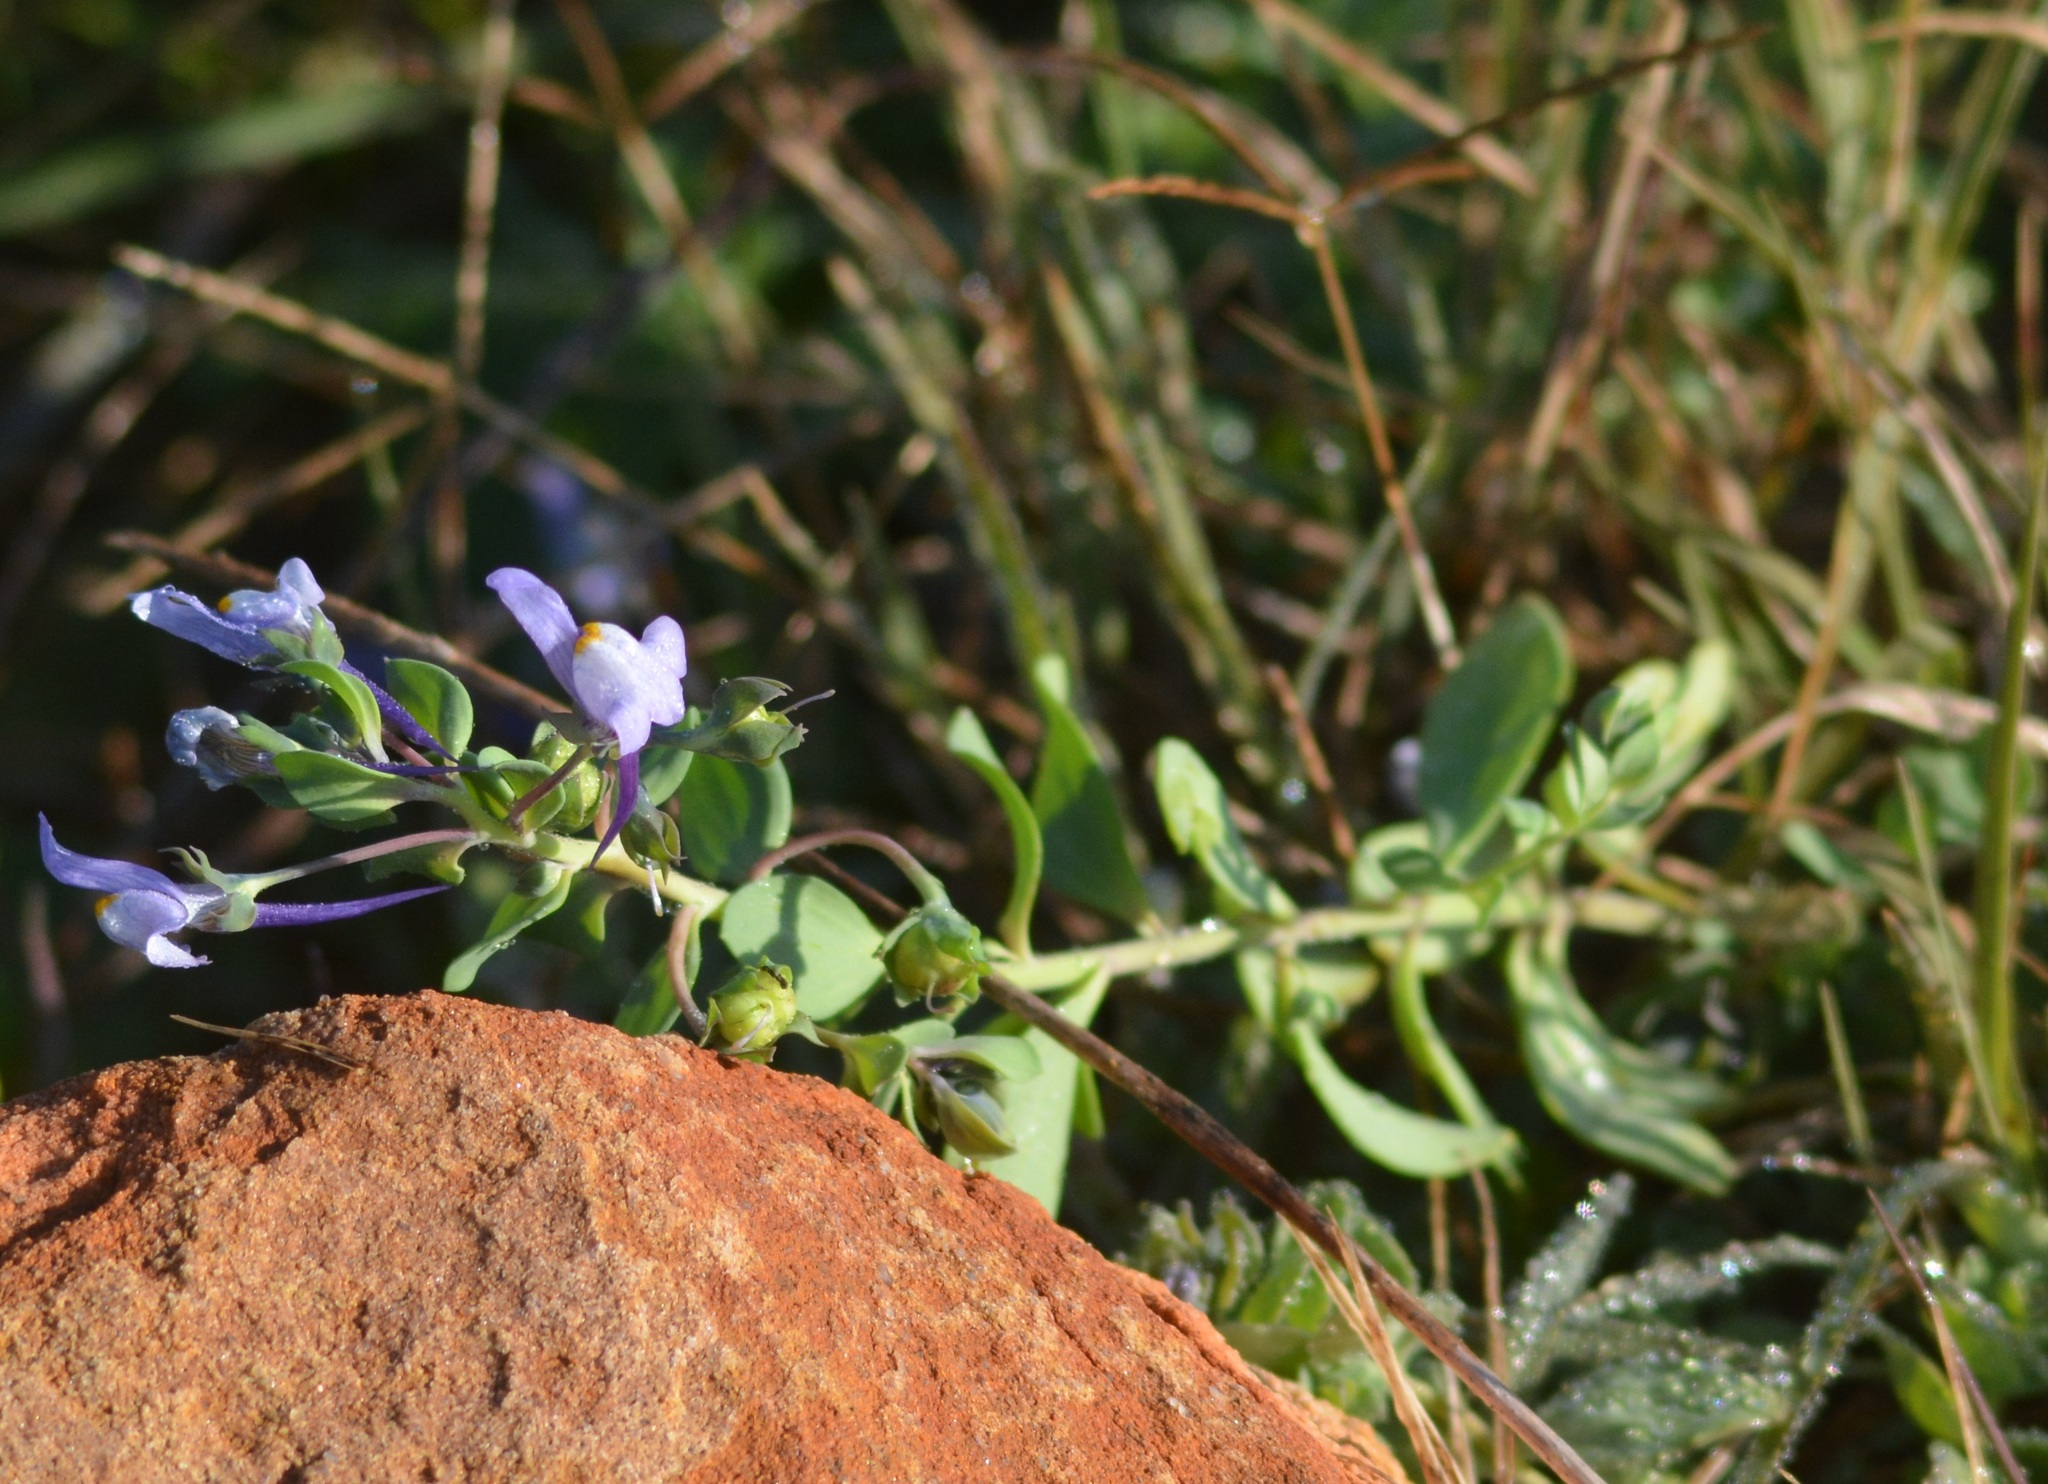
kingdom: Plantae
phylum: Tracheophyta
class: Magnoliopsida
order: Lamiales
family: Plantaginaceae
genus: Linaria
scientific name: Linaria reflexa
